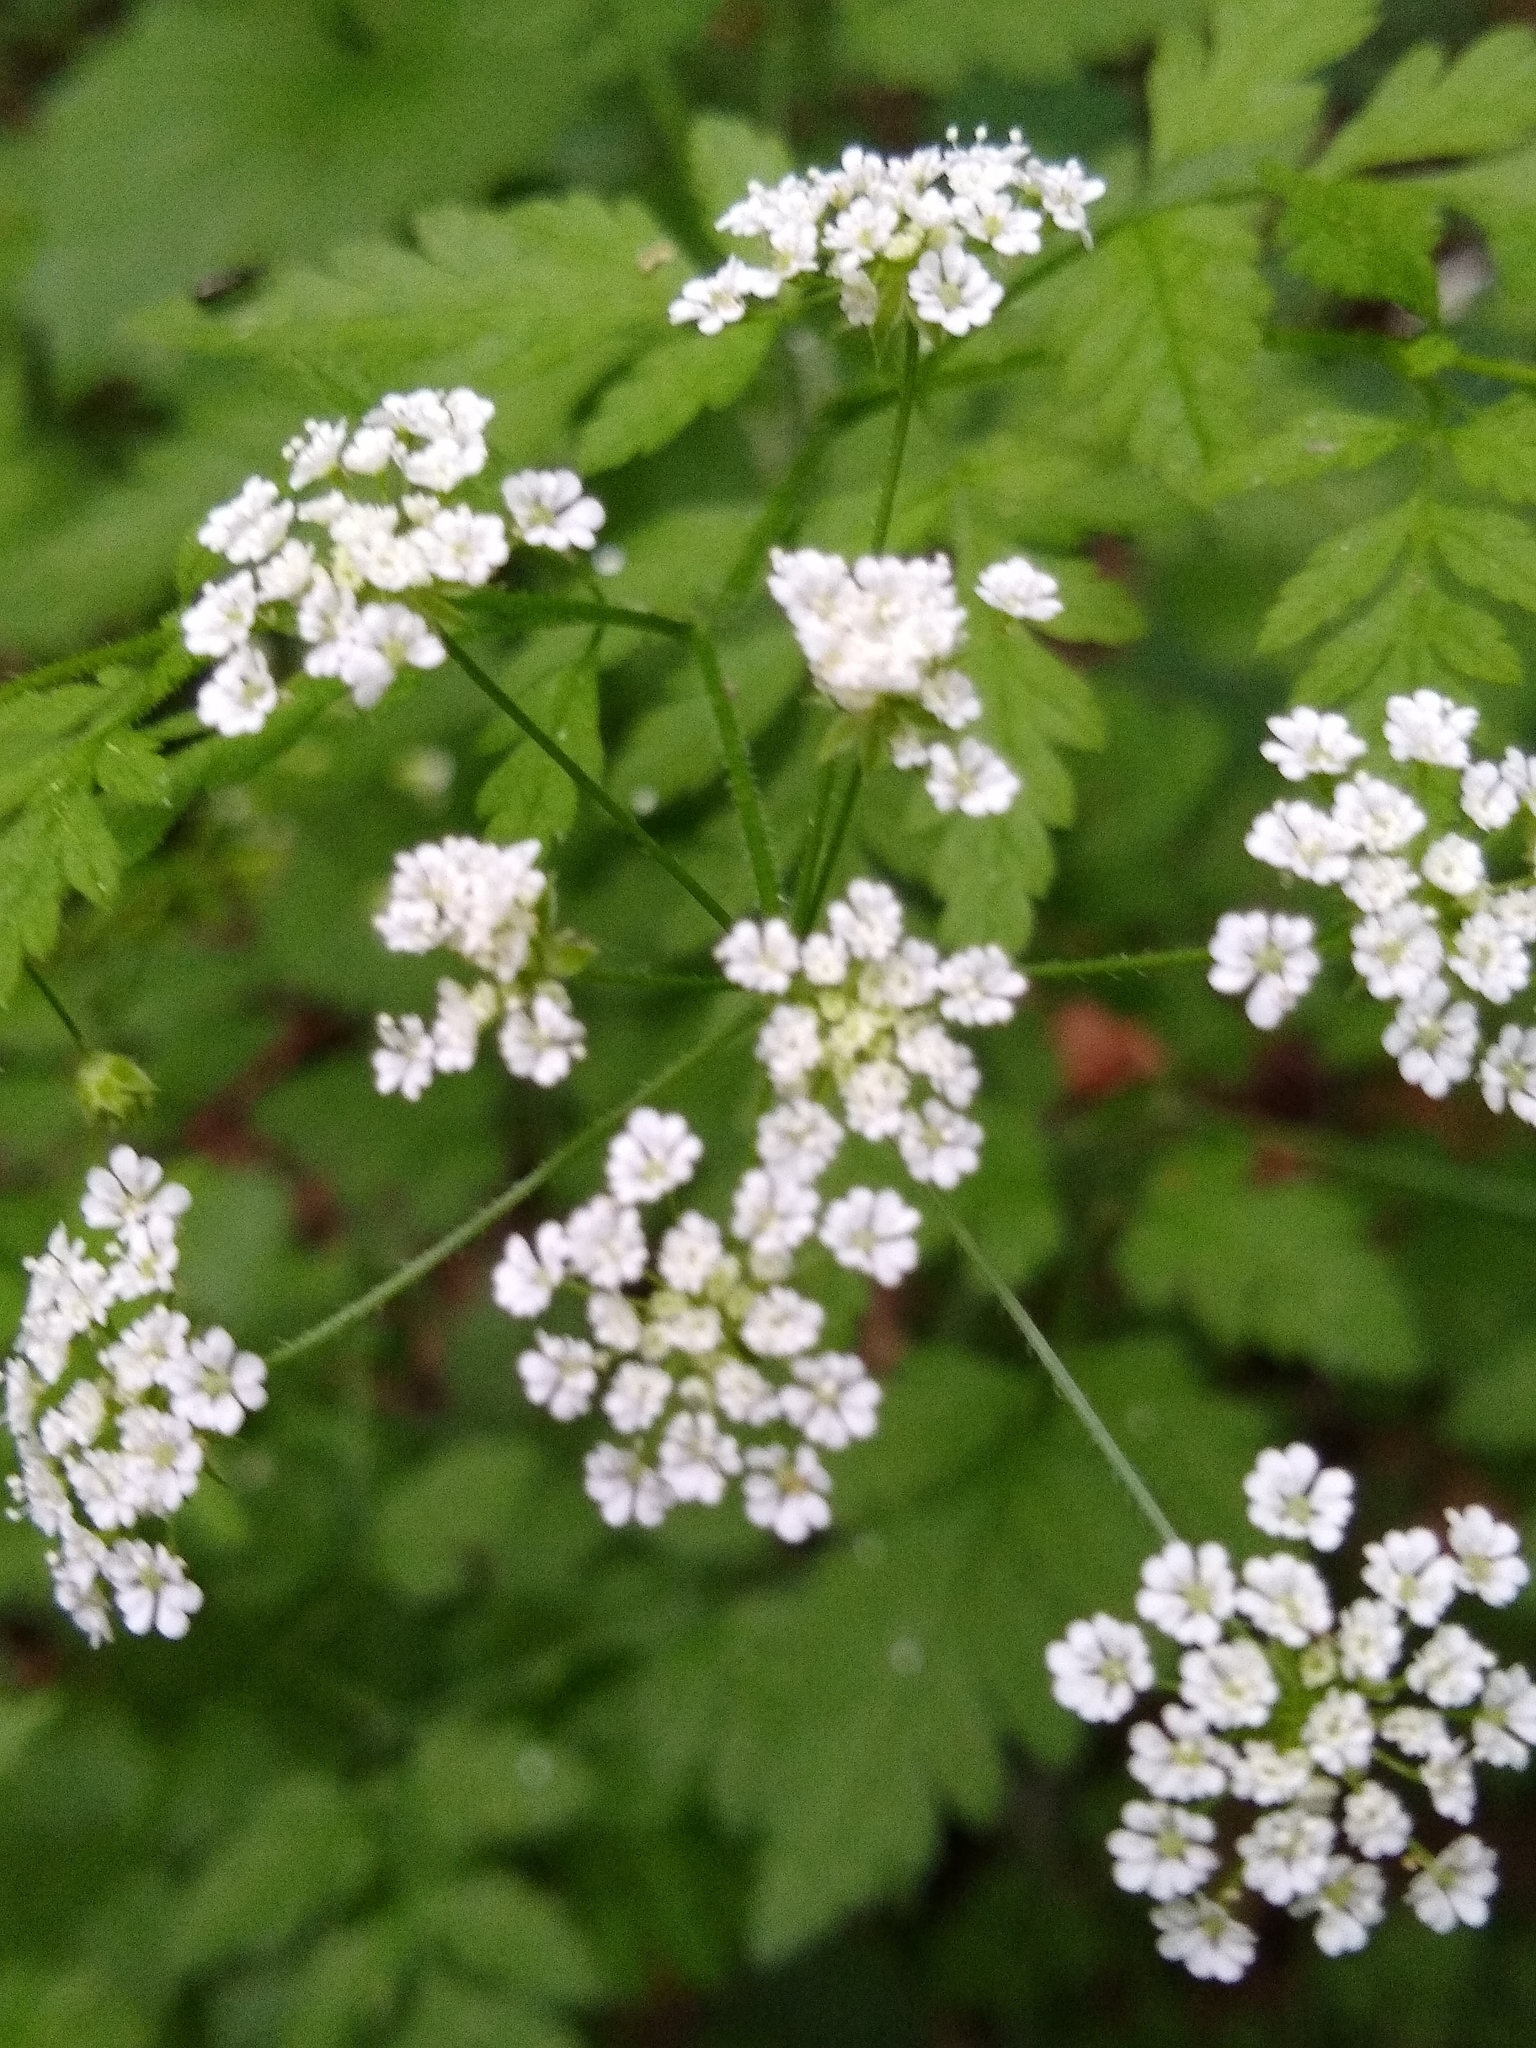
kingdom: Plantae
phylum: Tracheophyta
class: Magnoliopsida
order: Apiales
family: Apiaceae
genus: Torilis
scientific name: Torilis japonica
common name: Upright hedge-parsley
